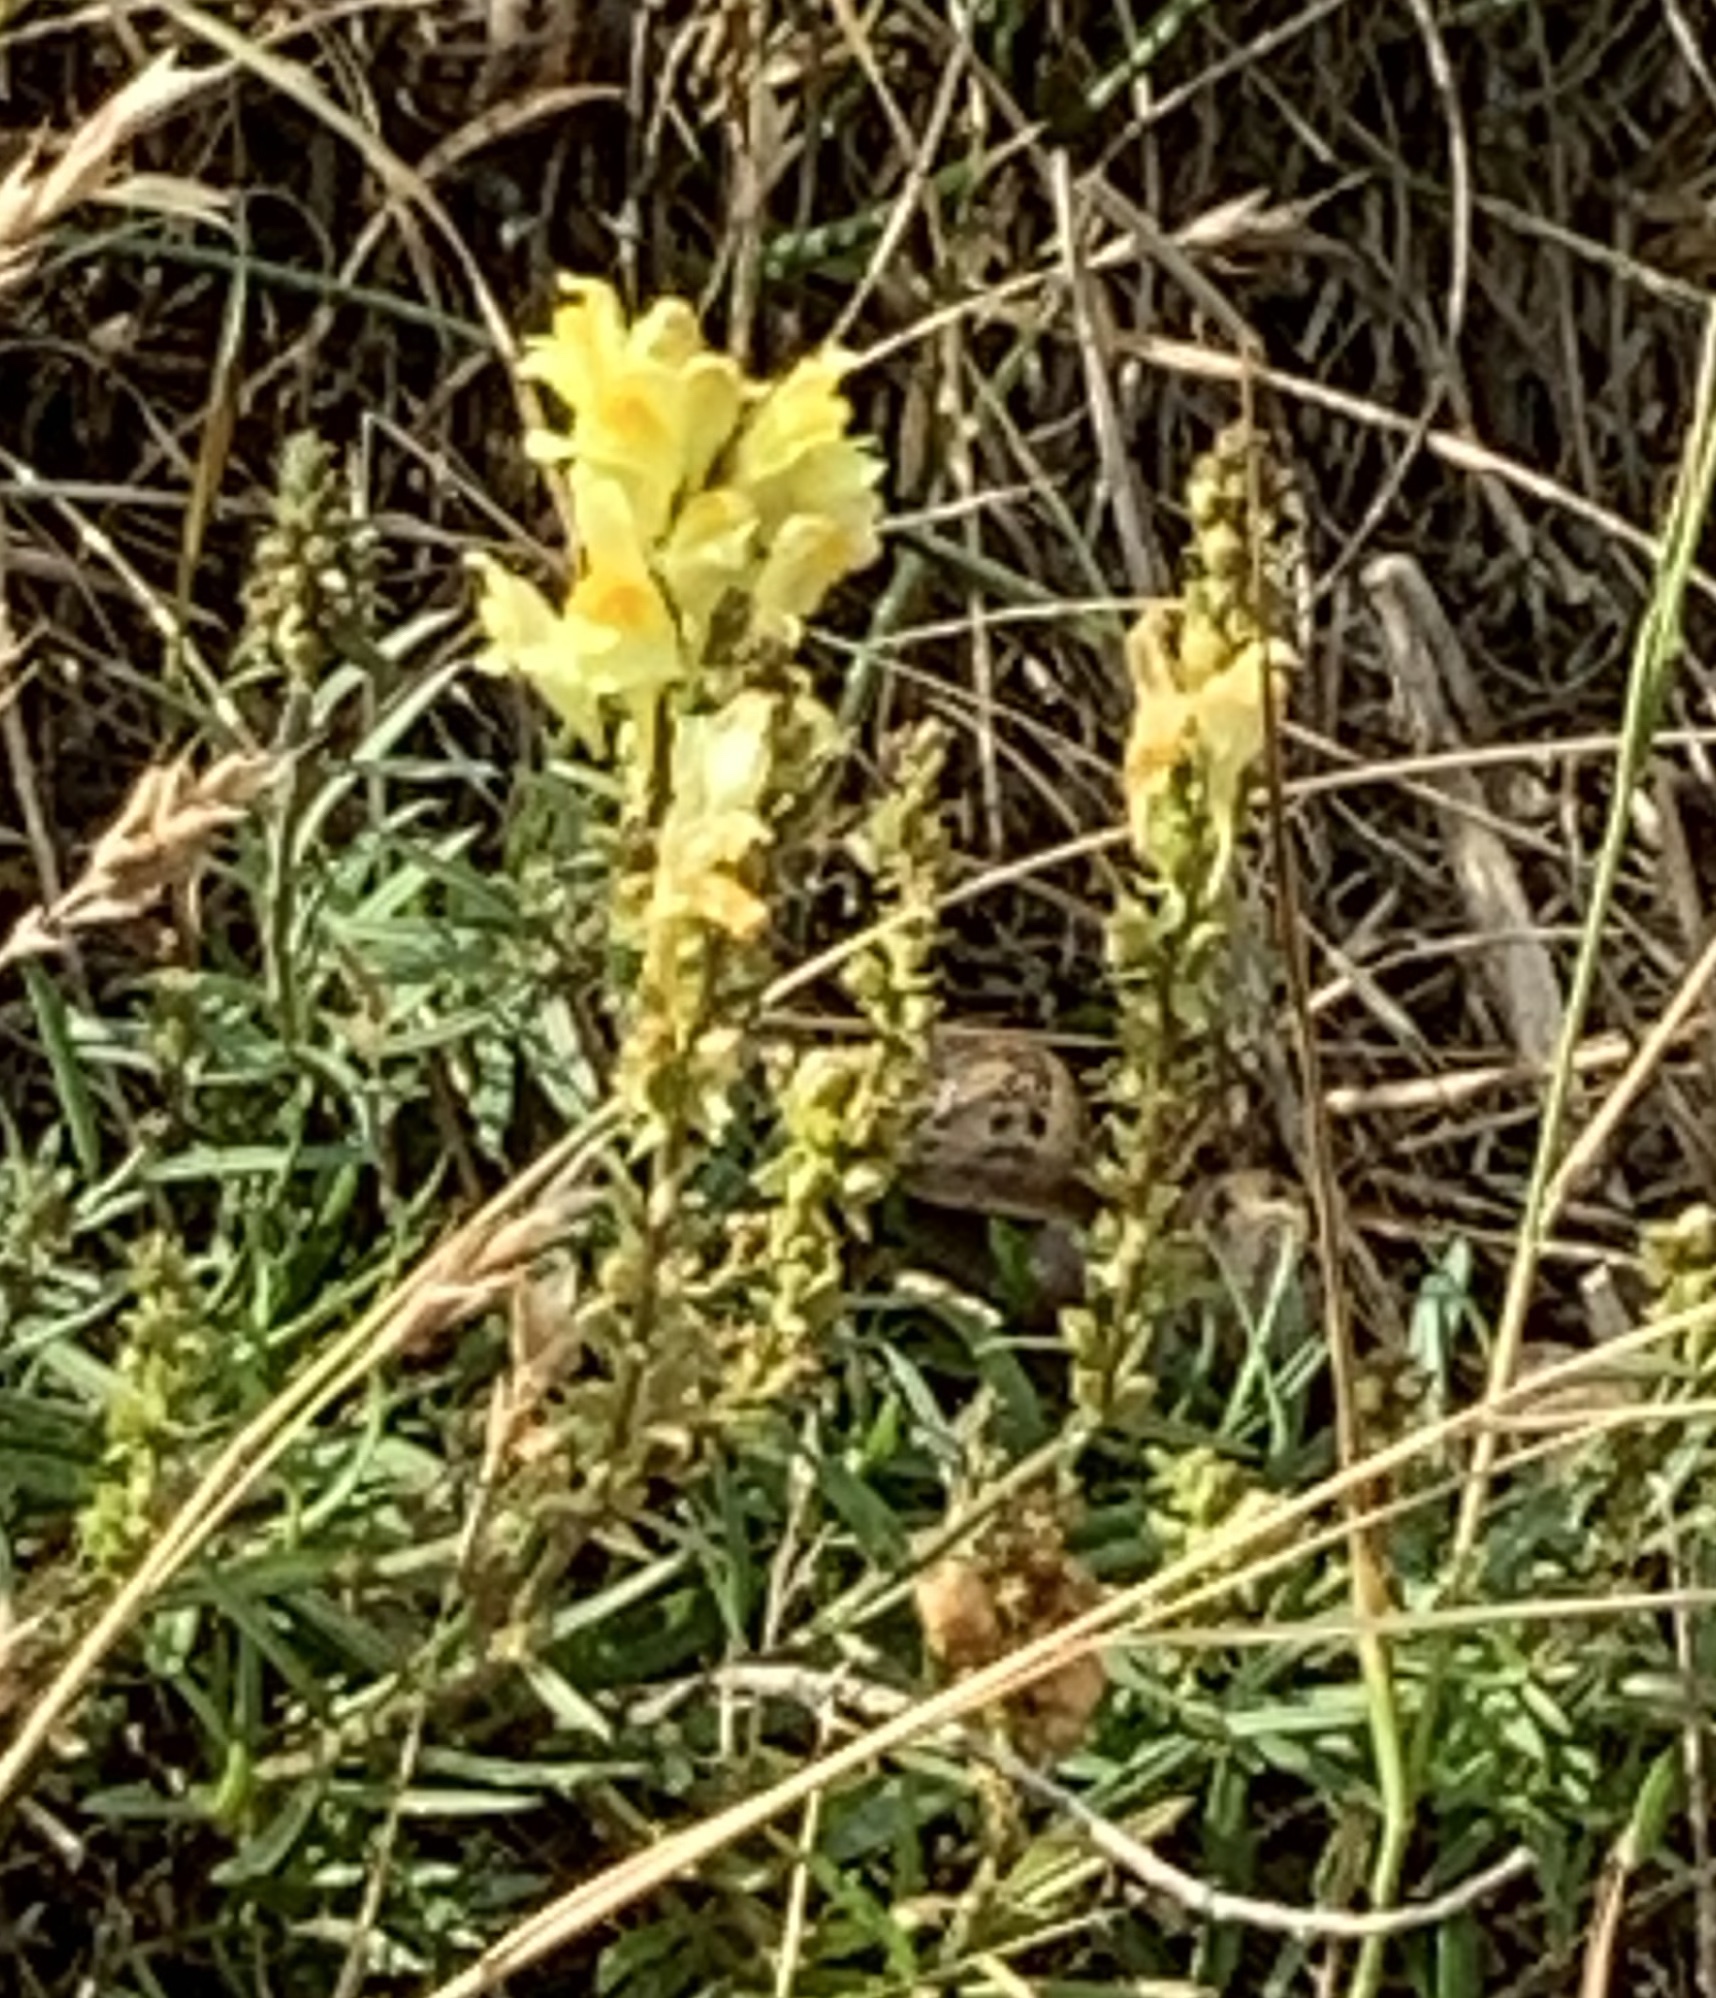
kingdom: Plantae
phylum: Tracheophyta
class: Magnoliopsida
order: Lamiales
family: Plantaginaceae
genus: Linaria
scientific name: Linaria vulgaris
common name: Butter and eggs
